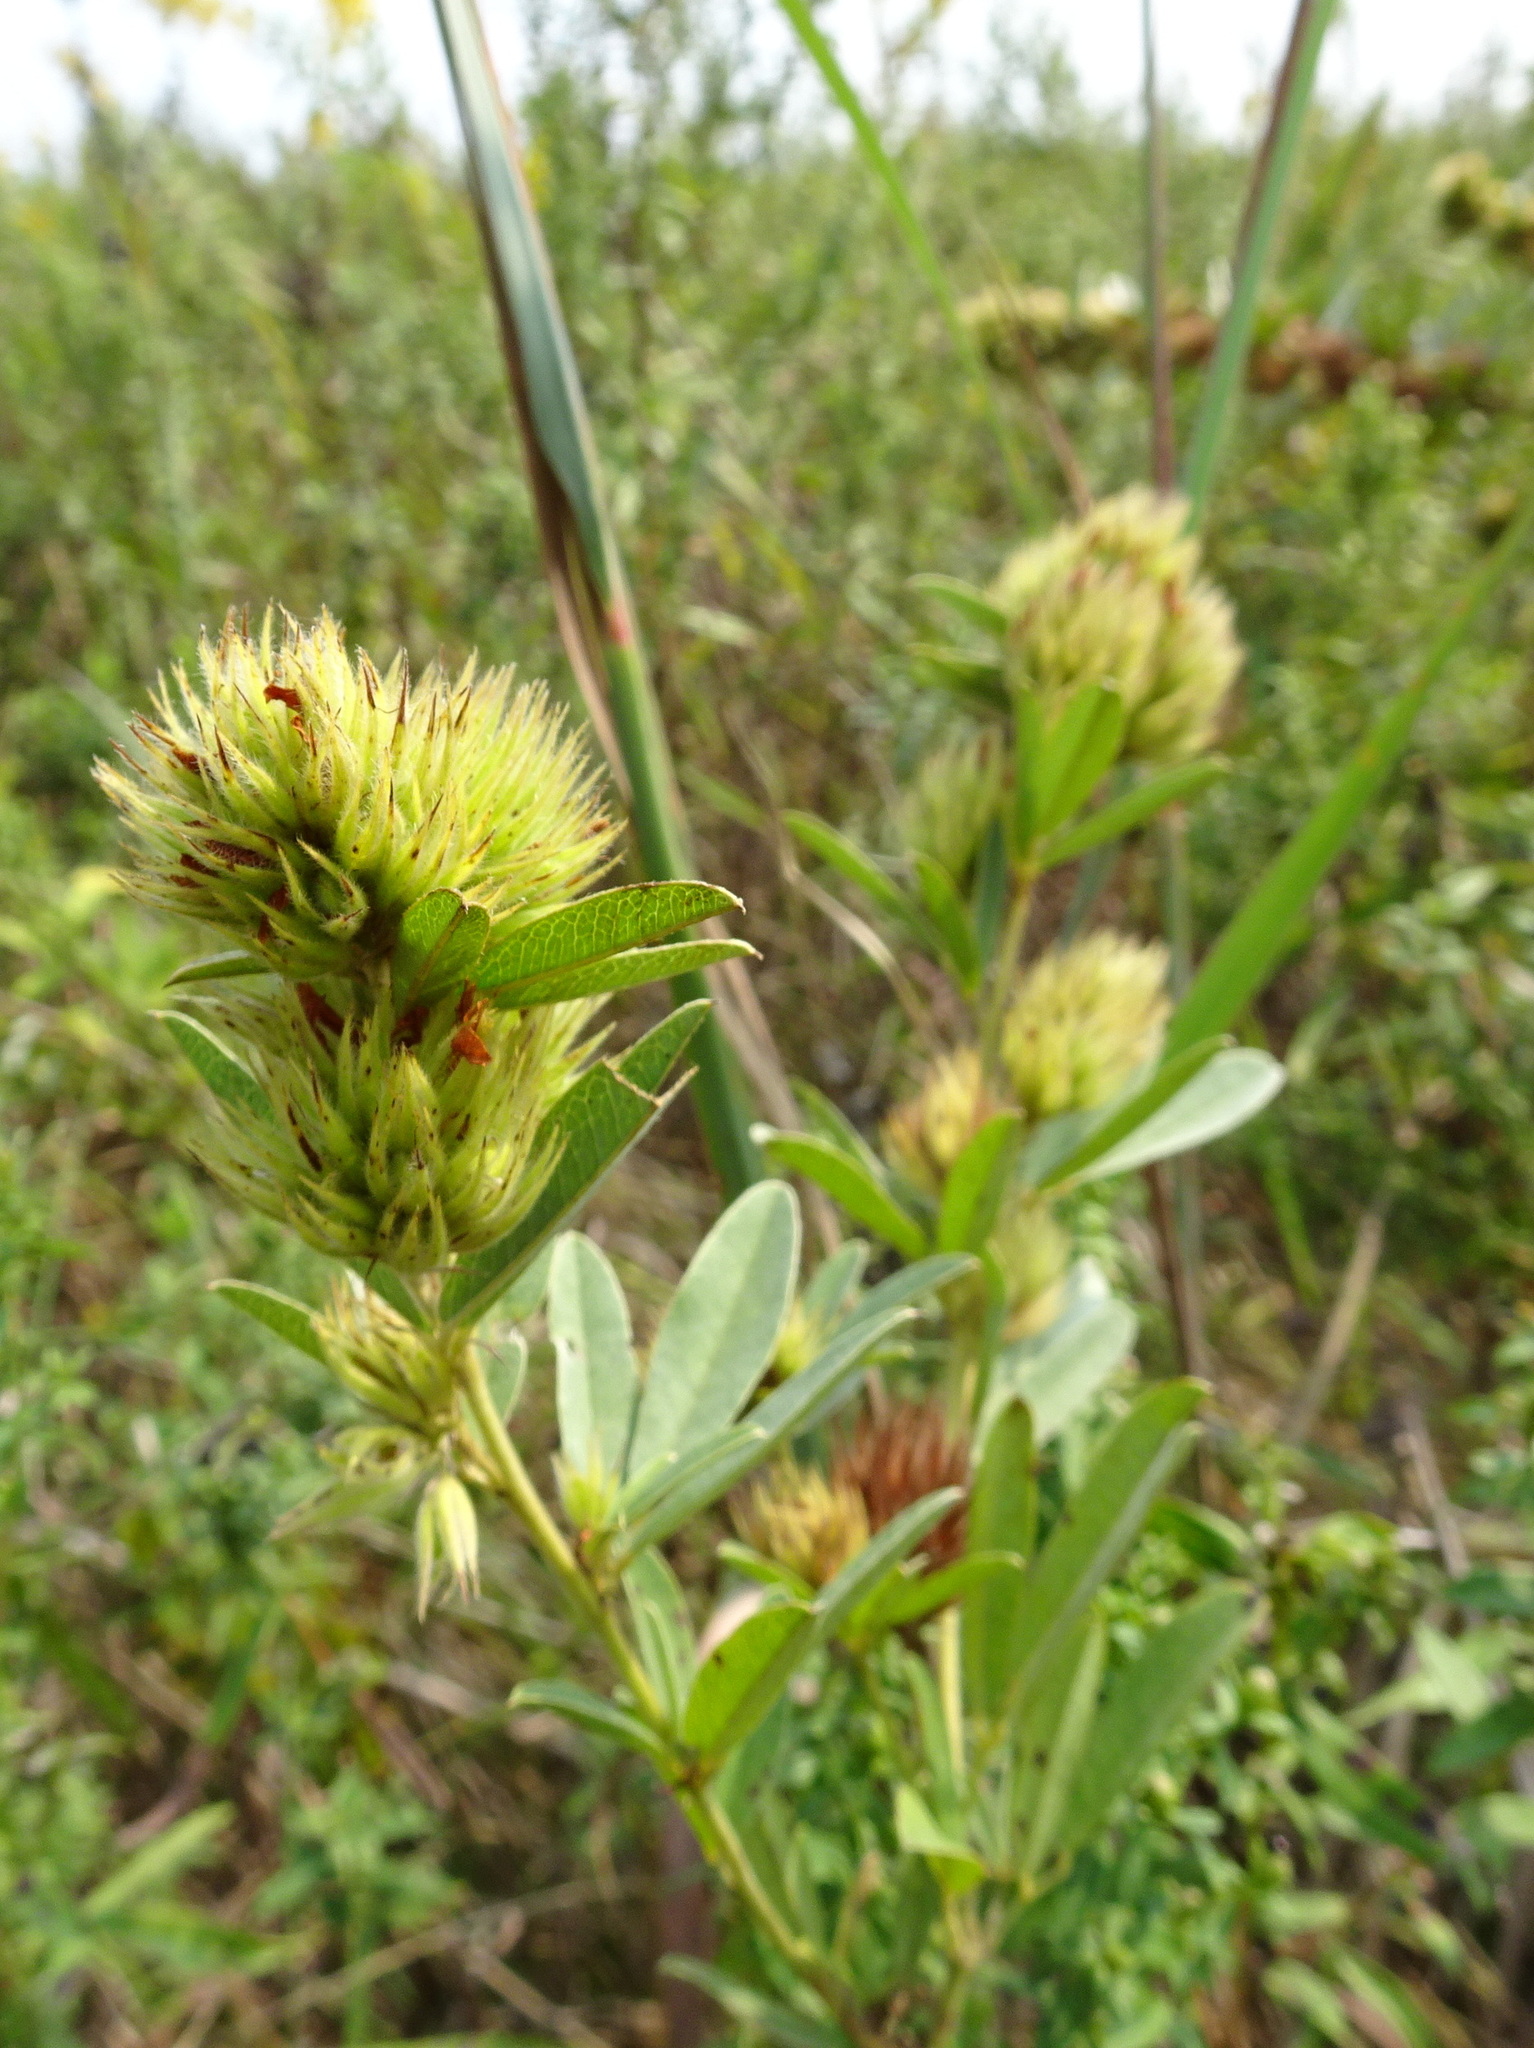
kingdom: Plantae
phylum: Tracheophyta
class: Magnoliopsida
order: Fabales
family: Fabaceae
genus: Lespedeza
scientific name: Lespedeza capitata
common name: Dusty clover
